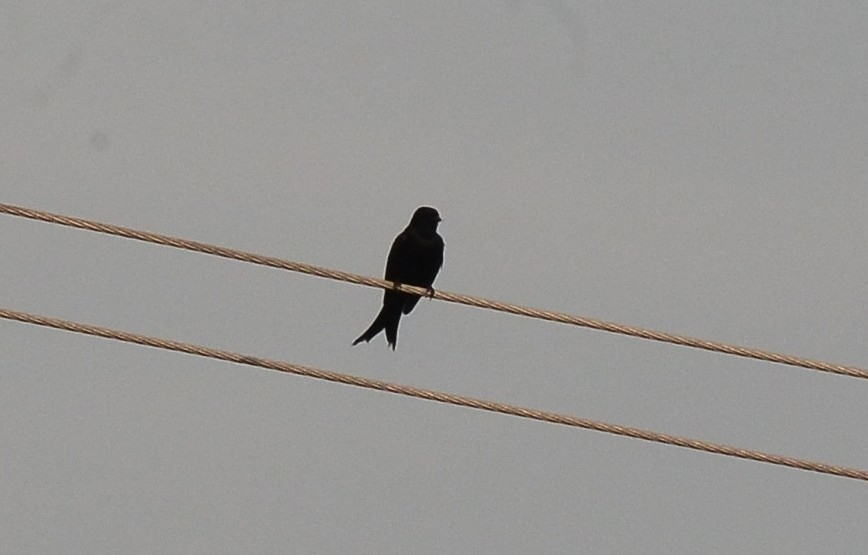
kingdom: Animalia
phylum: Chordata
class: Aves
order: Passeriformes
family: Dicruridae
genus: Dicrurus
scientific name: Dicrurus macrocercus
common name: Black drongo
